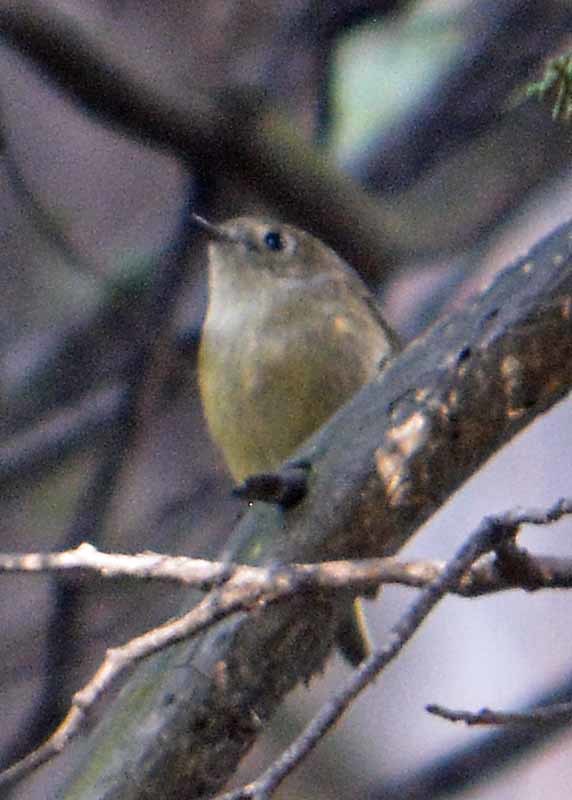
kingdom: Animalia
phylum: Chordata
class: Aves
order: Passeriformes
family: Regulidae
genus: Regulus
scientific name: Regulus calendula
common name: Ruby-crowned kinglet
